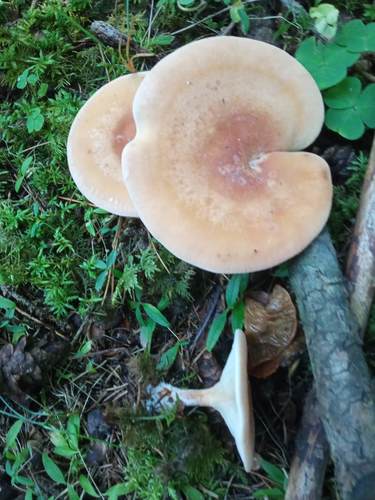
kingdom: Fungi
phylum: Basidiomycota
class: Agaricomycetes
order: Agaricales
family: Tricholomataceae
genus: Lepista
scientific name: Lepista irina
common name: Flowery blewit
